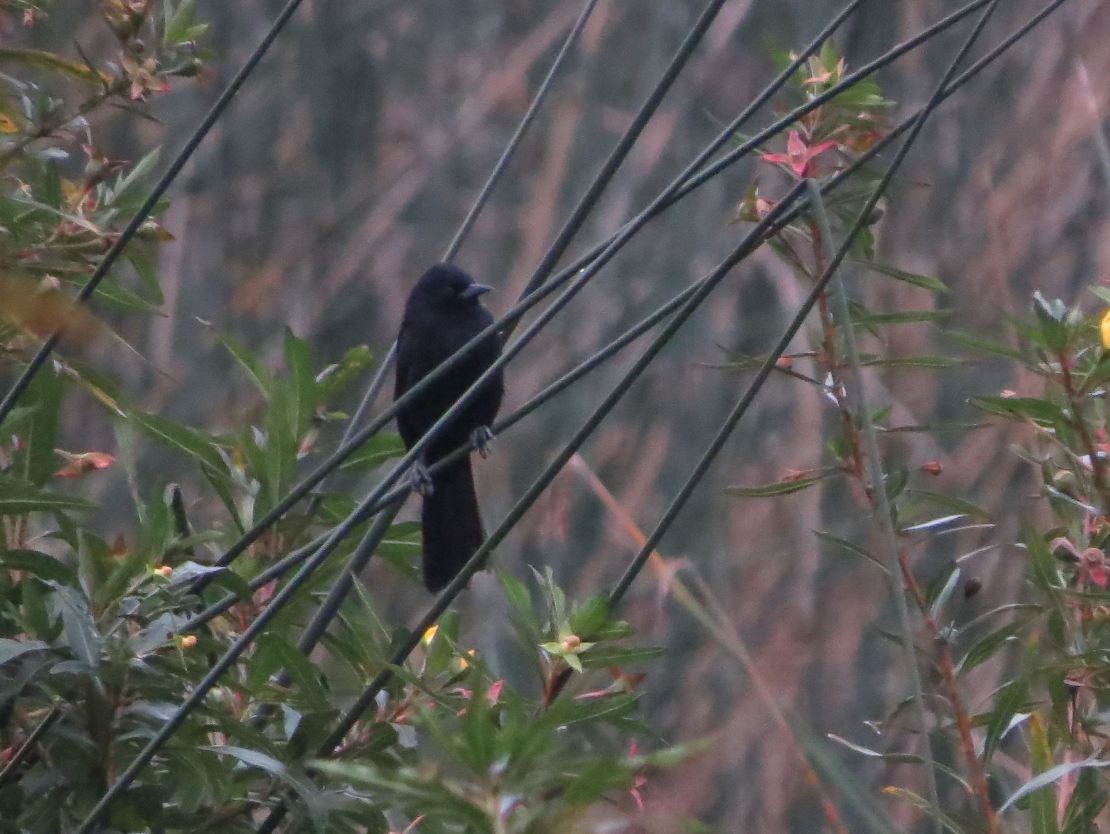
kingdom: Animalia
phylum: Chordata
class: Aves
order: Passeriformes
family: Icteridae
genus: Icterus
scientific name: Icterus cayanensis
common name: Epaulet oriole
